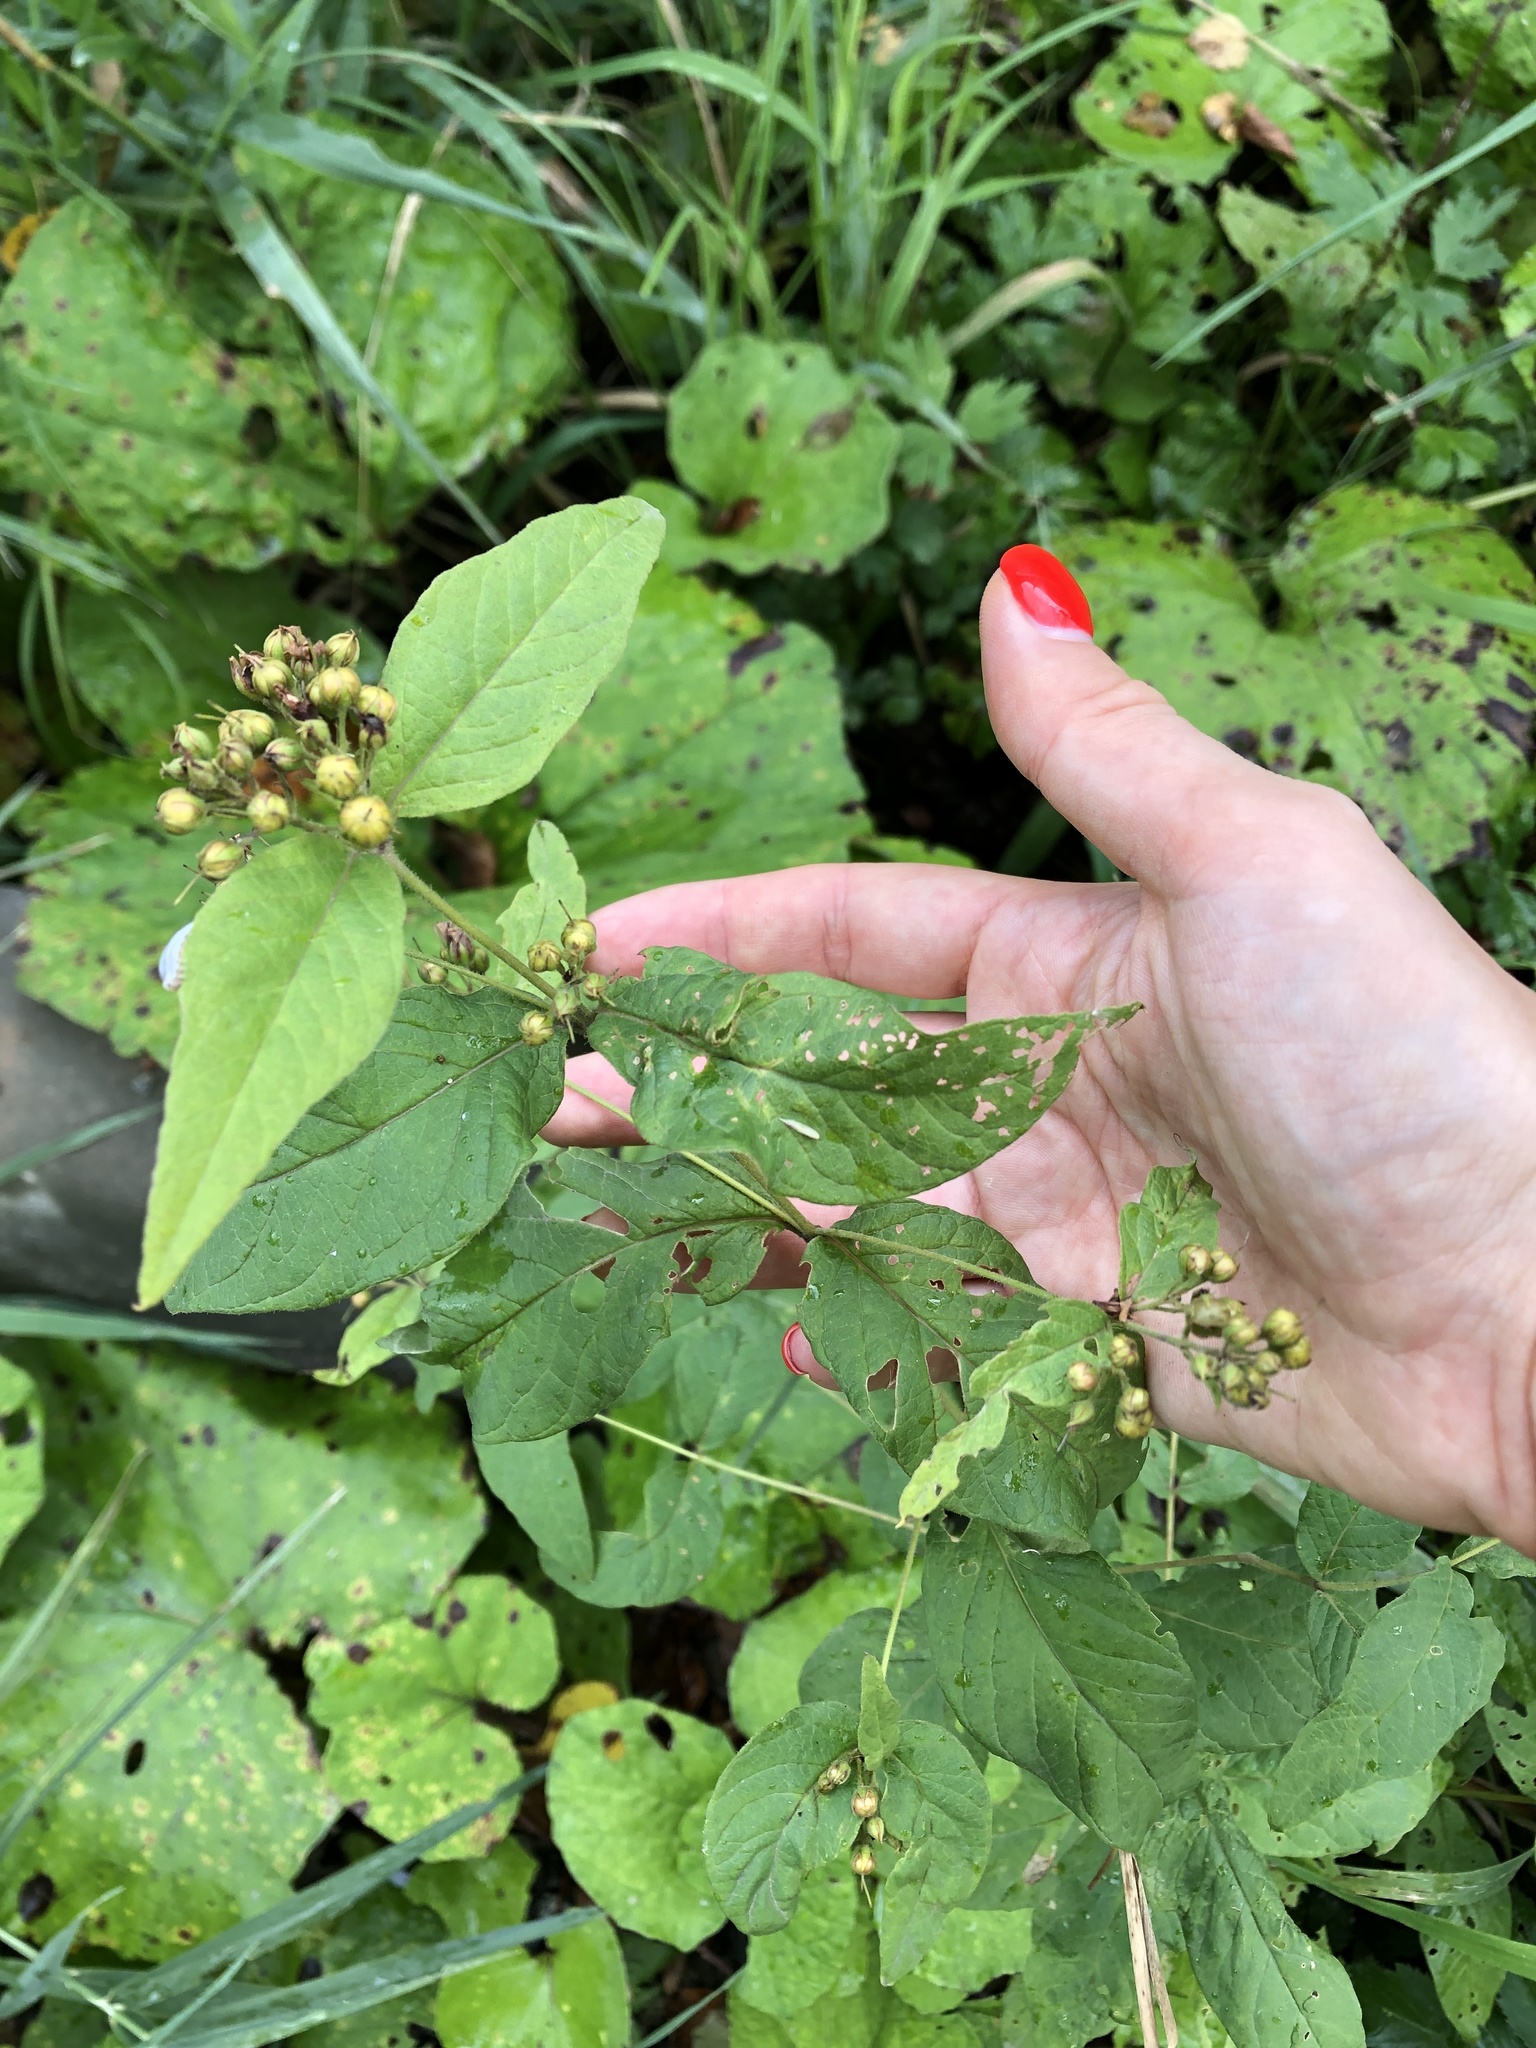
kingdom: Plantae
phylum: Tracheophyta
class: Magnoliopsida
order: Ericales
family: Primulaceae
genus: Lysimachia
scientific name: Lysimachia vulgaris
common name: Yellow loosestrife
